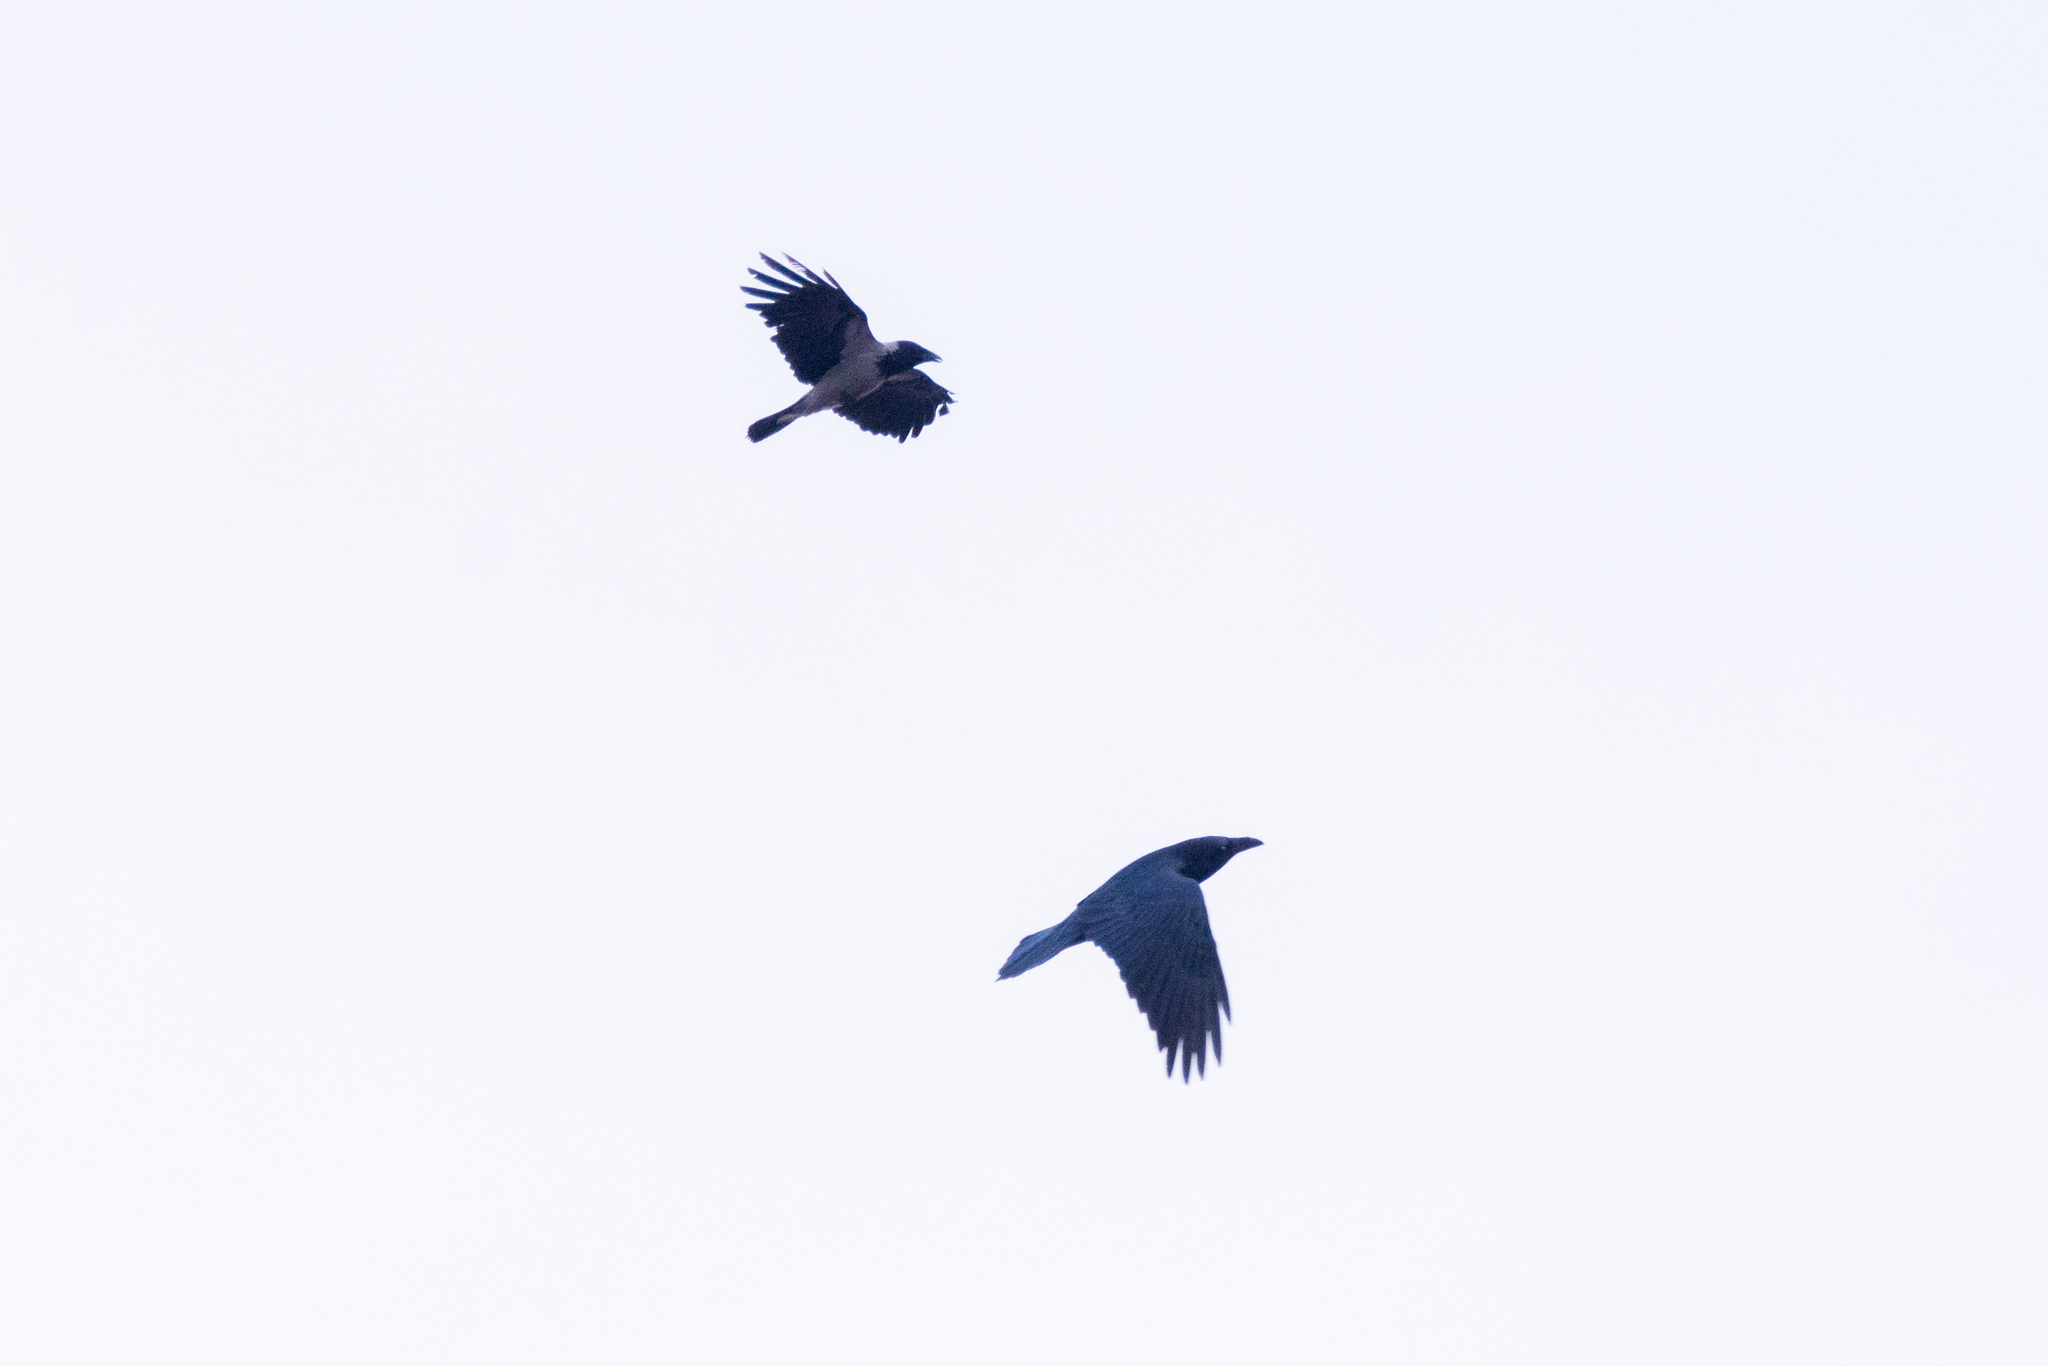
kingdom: Animalia
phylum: Chordata
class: Aves
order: Passeriformes
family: Corvidae
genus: Corvus
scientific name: Corvus corax
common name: Common raven
